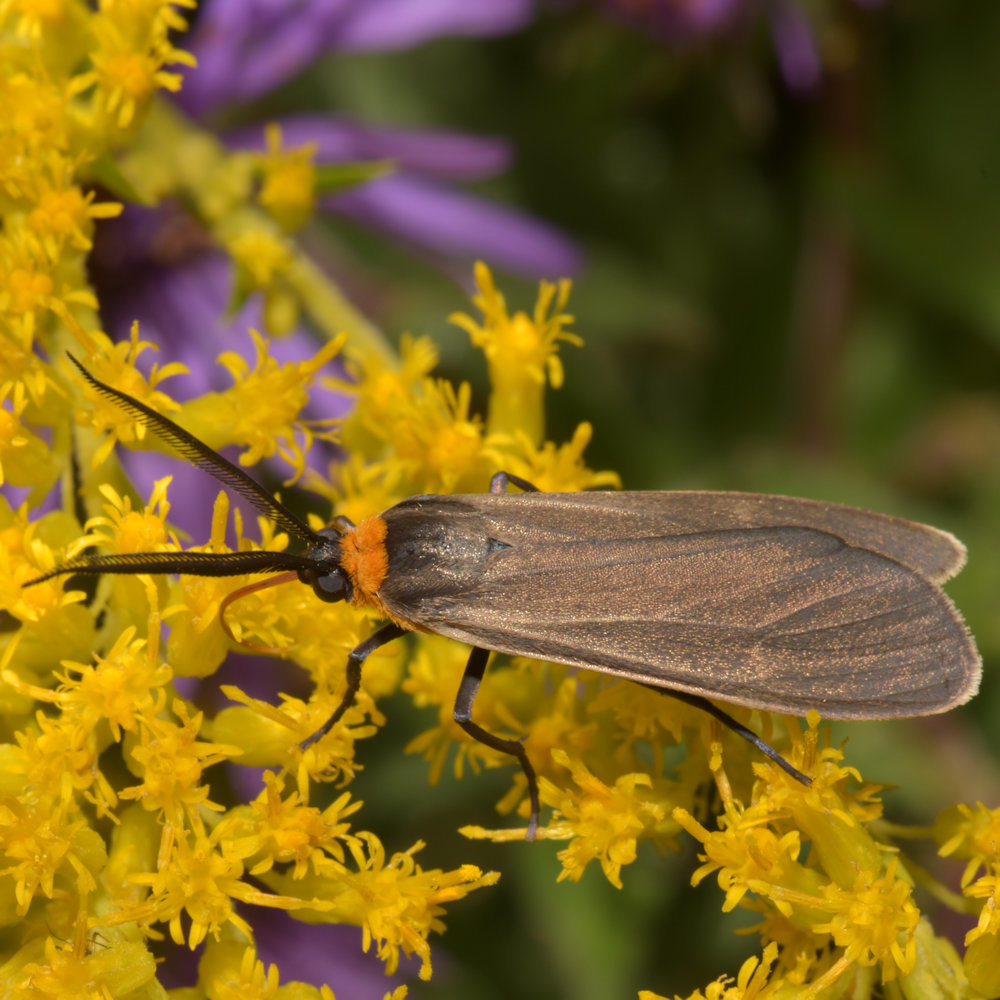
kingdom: Animalia
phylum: Arthropoda
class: Insecta
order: Lepidoptera
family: Erebidae
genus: Cisseps
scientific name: Cisseps fulvicollis
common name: Yellow-collared scape moth
